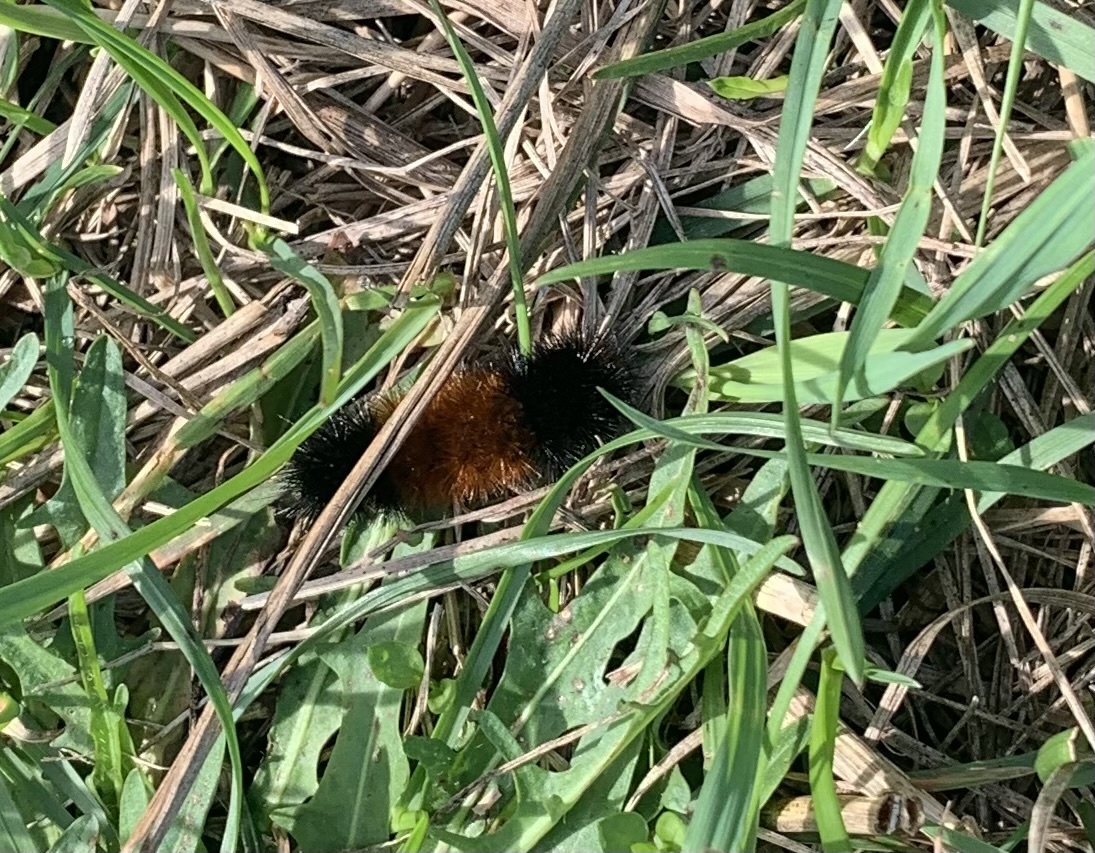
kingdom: Animalia
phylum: Arthropoda
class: Insecta
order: Lepidoptera
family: Erebidae
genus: Pyrrharctia
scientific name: Pyrrharctia isabella
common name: Isabella tiger moth
